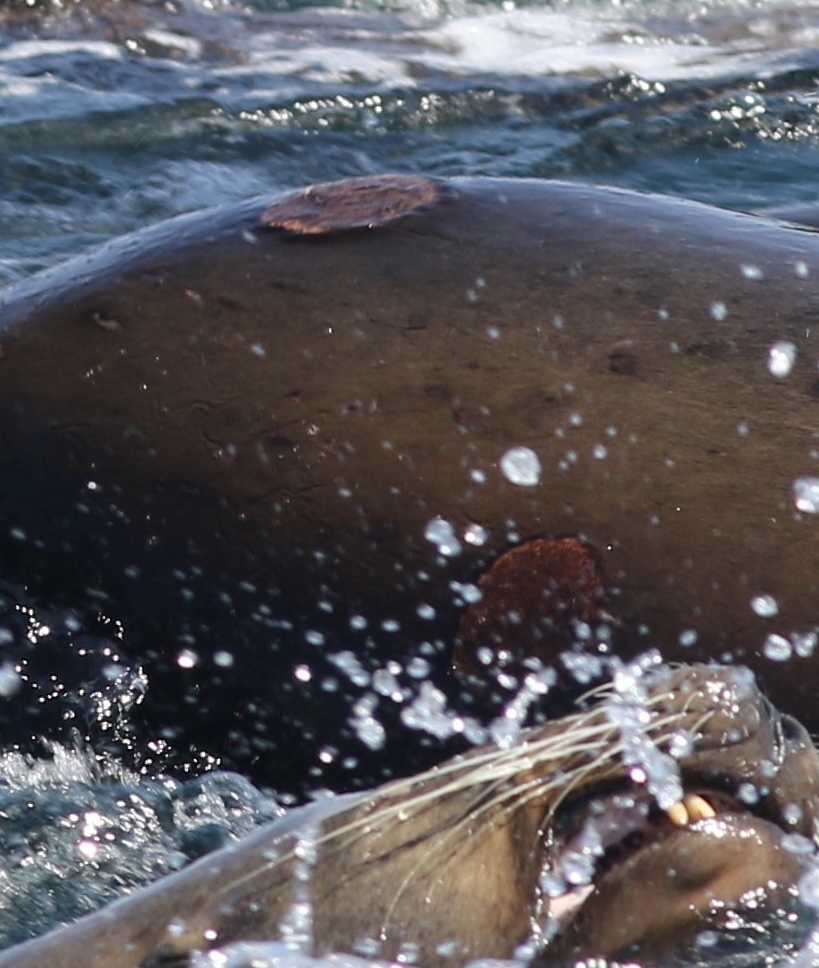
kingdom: Animalia
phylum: Chordata
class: Elasmobranchii
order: Squaliformes
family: Dalatiidae
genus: Isistius
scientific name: Isistius brasiliensis
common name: Cookiecutter shark
